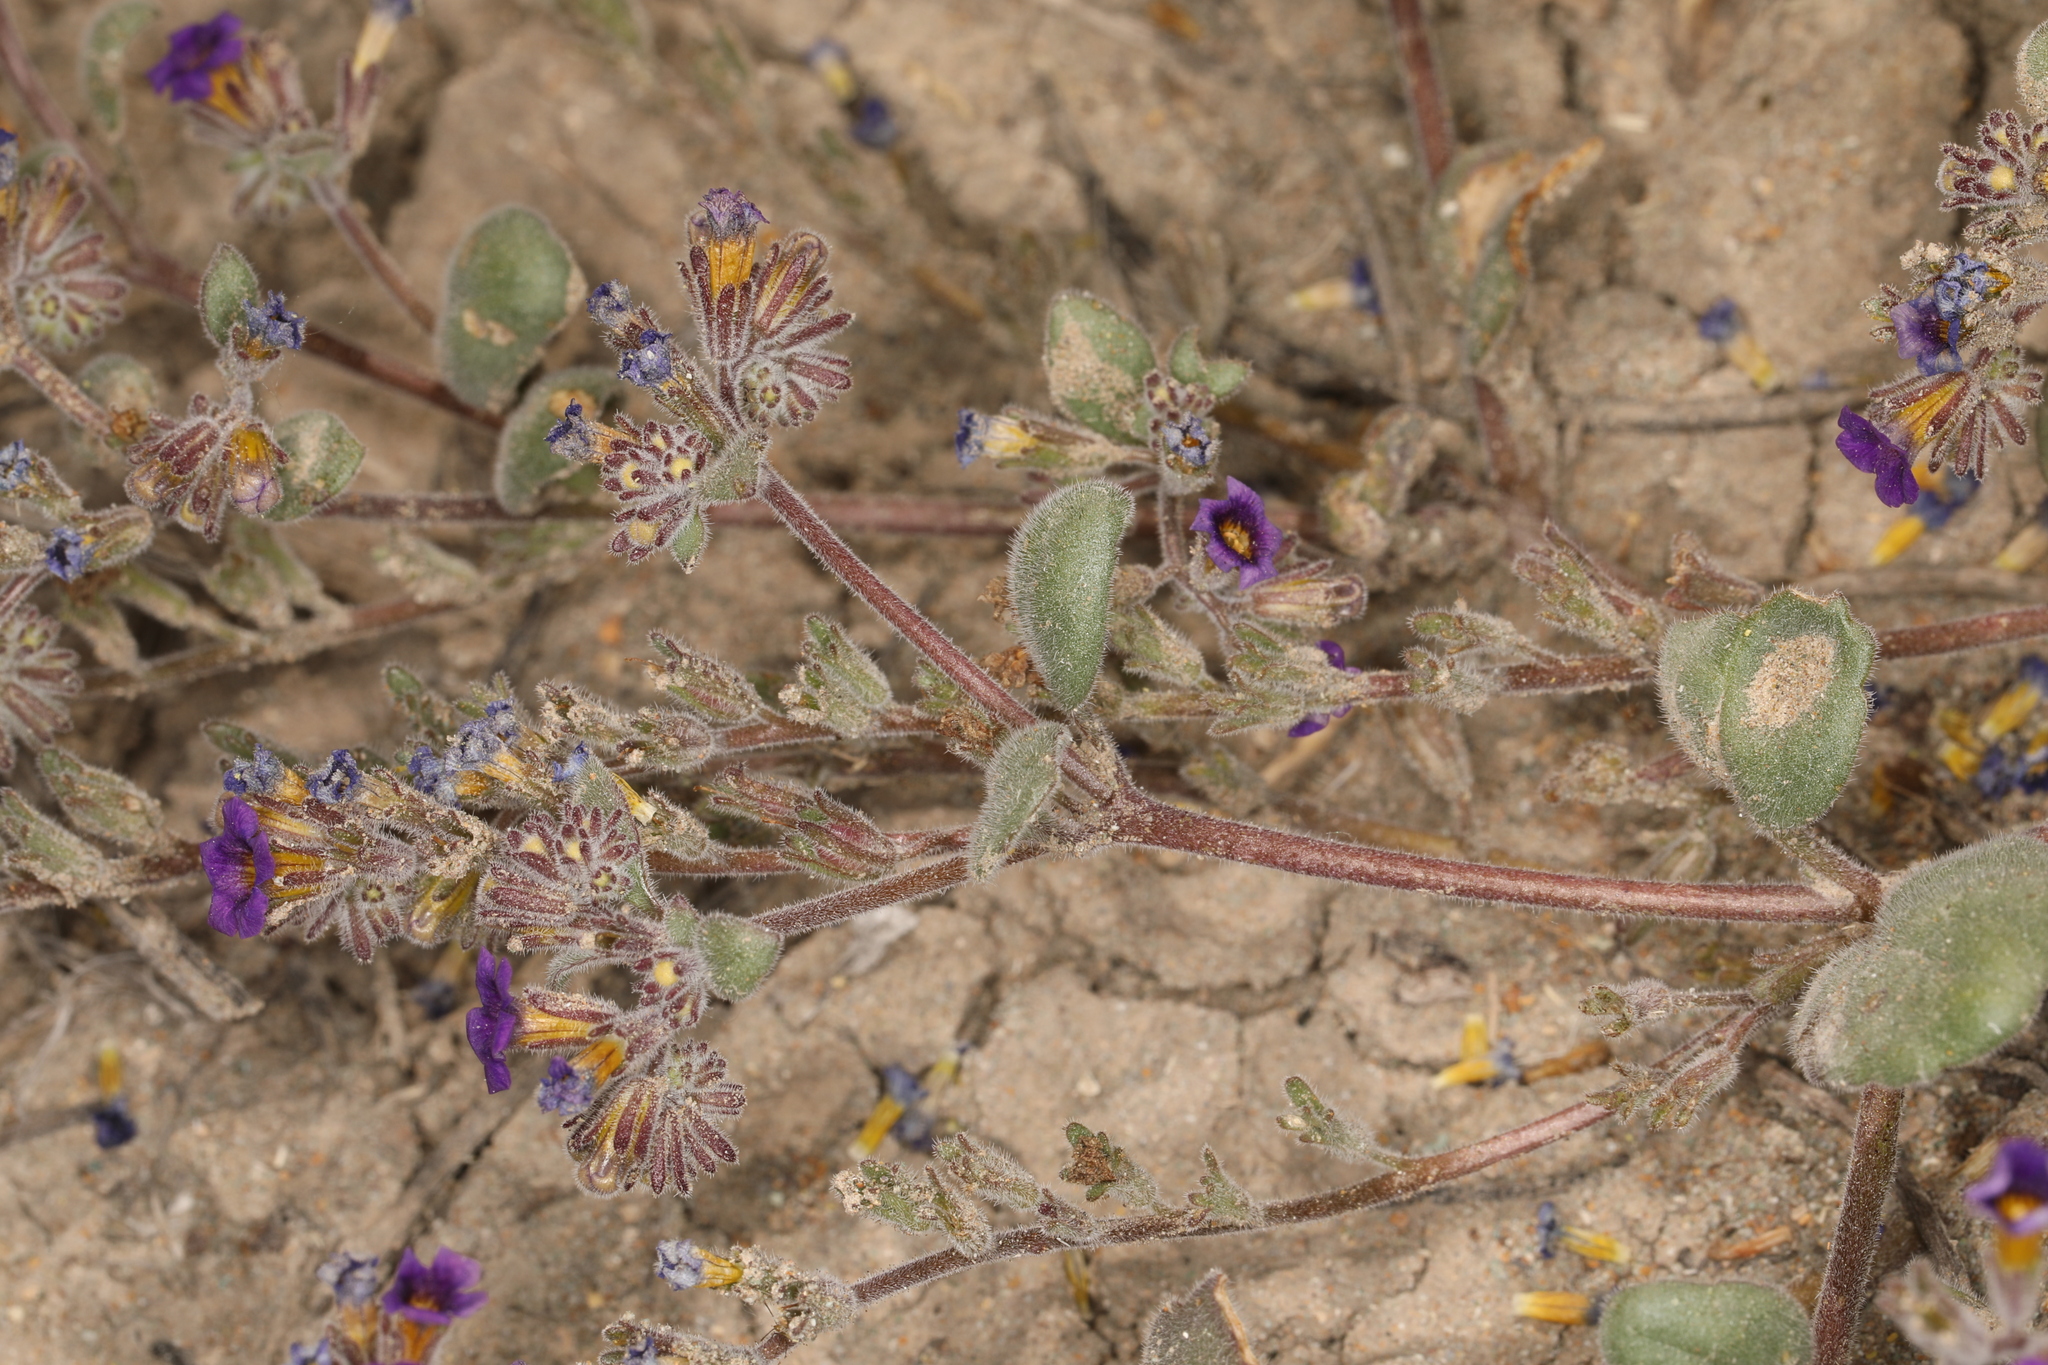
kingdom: Plantae
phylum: Tracheophyta
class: Magnoliopsida
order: Boraginales
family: Hydrophyllaceae
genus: Phacelia
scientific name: Phacelia gymnoclada
